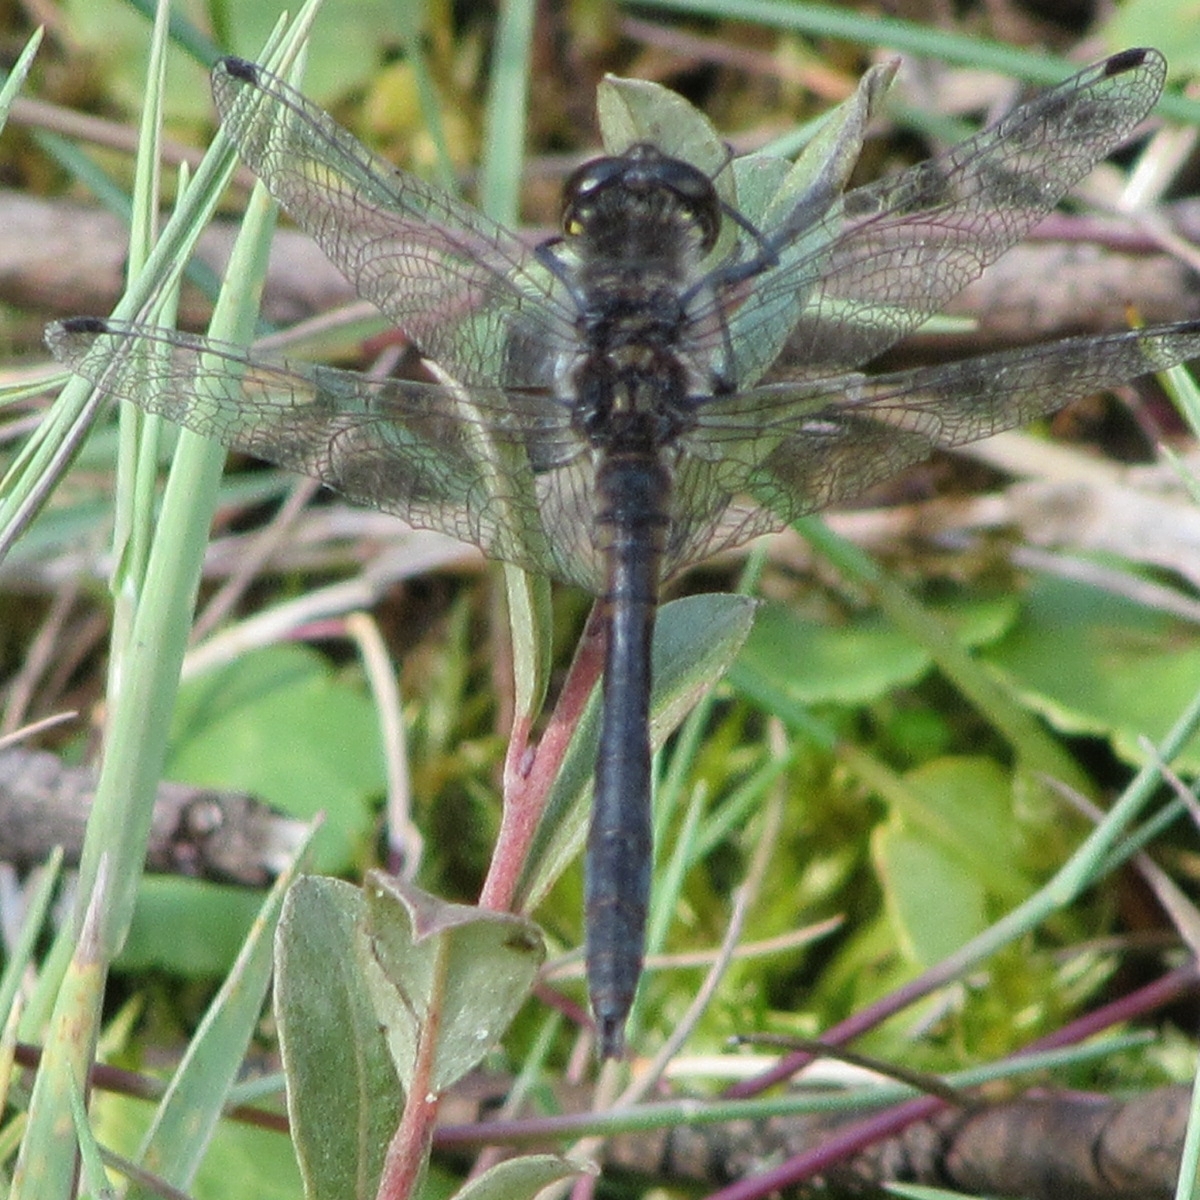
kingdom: Animalia
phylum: Arthropoda
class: Insecta
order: Odonata
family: Libellulidae
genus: Sympetrum
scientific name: Sympetrum danae
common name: Black darter
